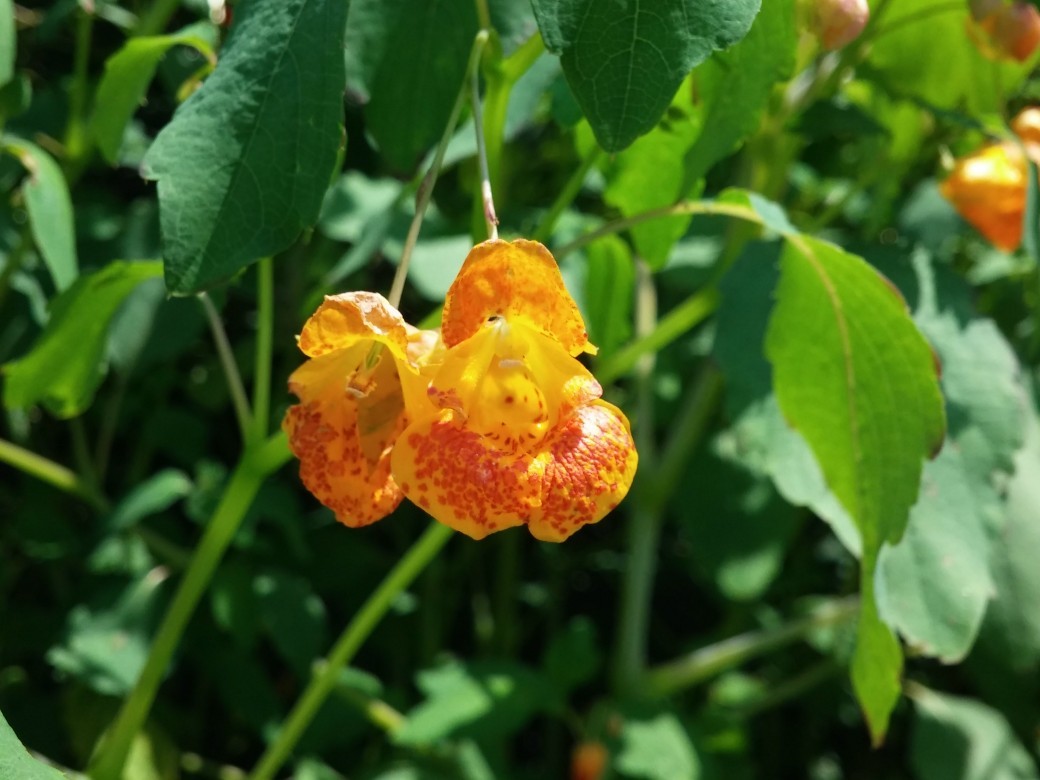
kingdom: Plantae
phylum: Tracheophyta
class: Magnoliopsida
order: Ericales
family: Balsaminaceae
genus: Impatiens
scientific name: Impatiens capensis
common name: Orange balsam
